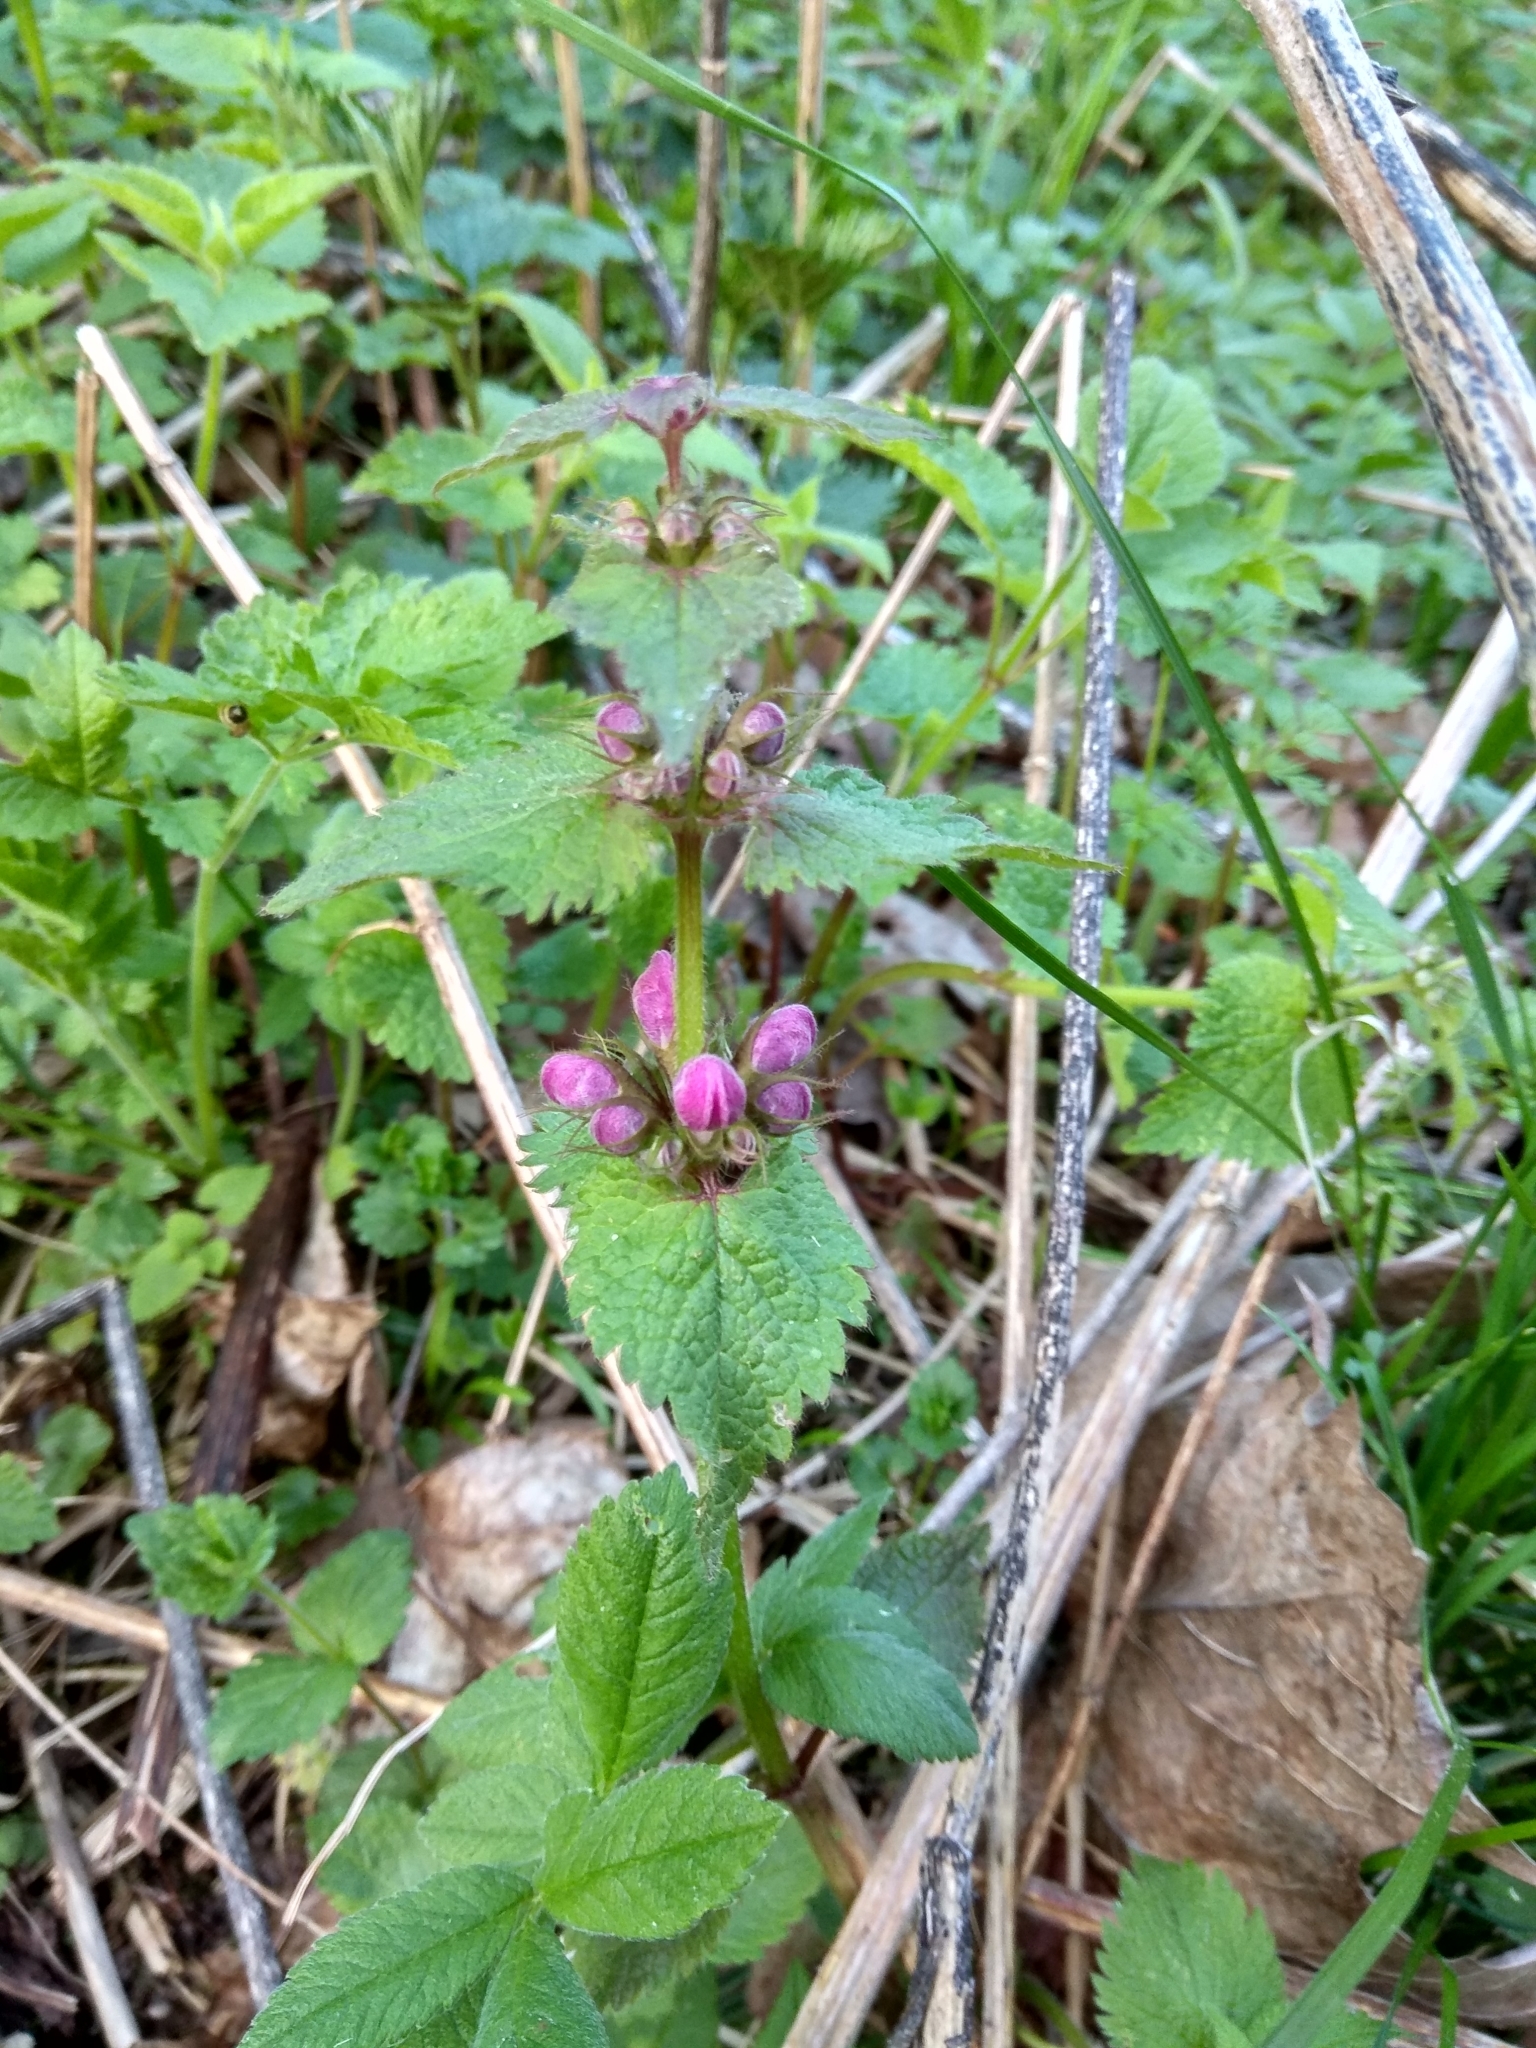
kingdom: Plantae
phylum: Tracheophyta
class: Magnoliopsida
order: Lamiales
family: Lamiaceae
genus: Lamium
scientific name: Lamium maculatum
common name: Spotted dead-nettle
